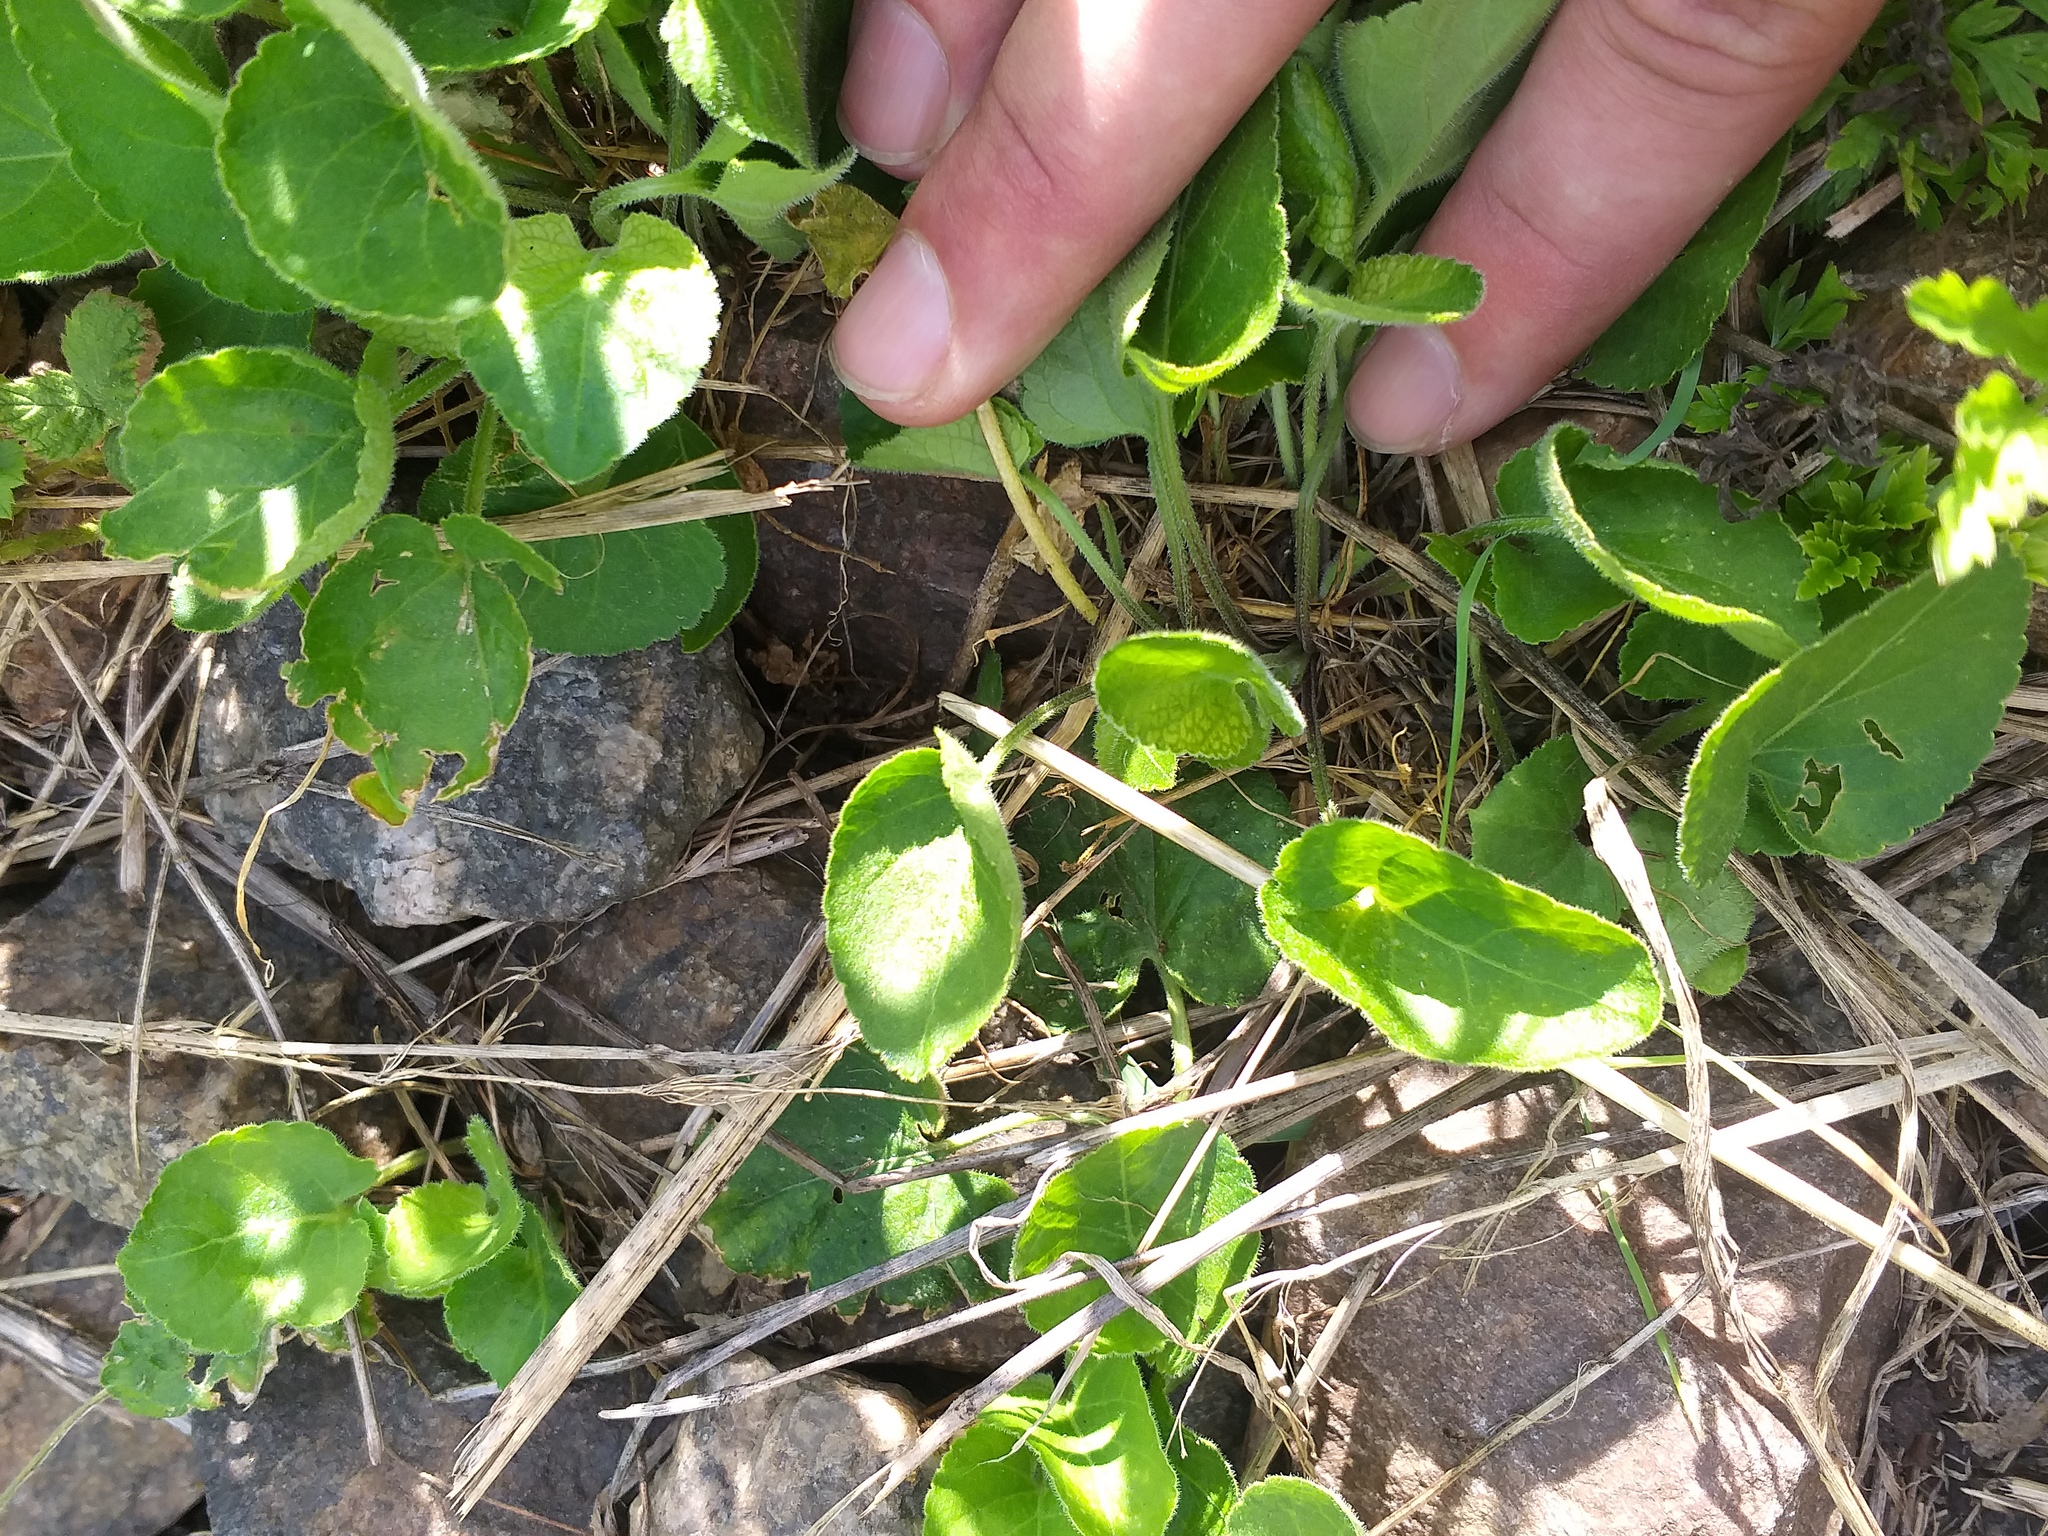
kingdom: Plantae
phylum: Tracheophyta
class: Magnoliopsida
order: Malpighiales
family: Violaceae
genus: Viola
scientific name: Viola hirta
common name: Hairy violet
